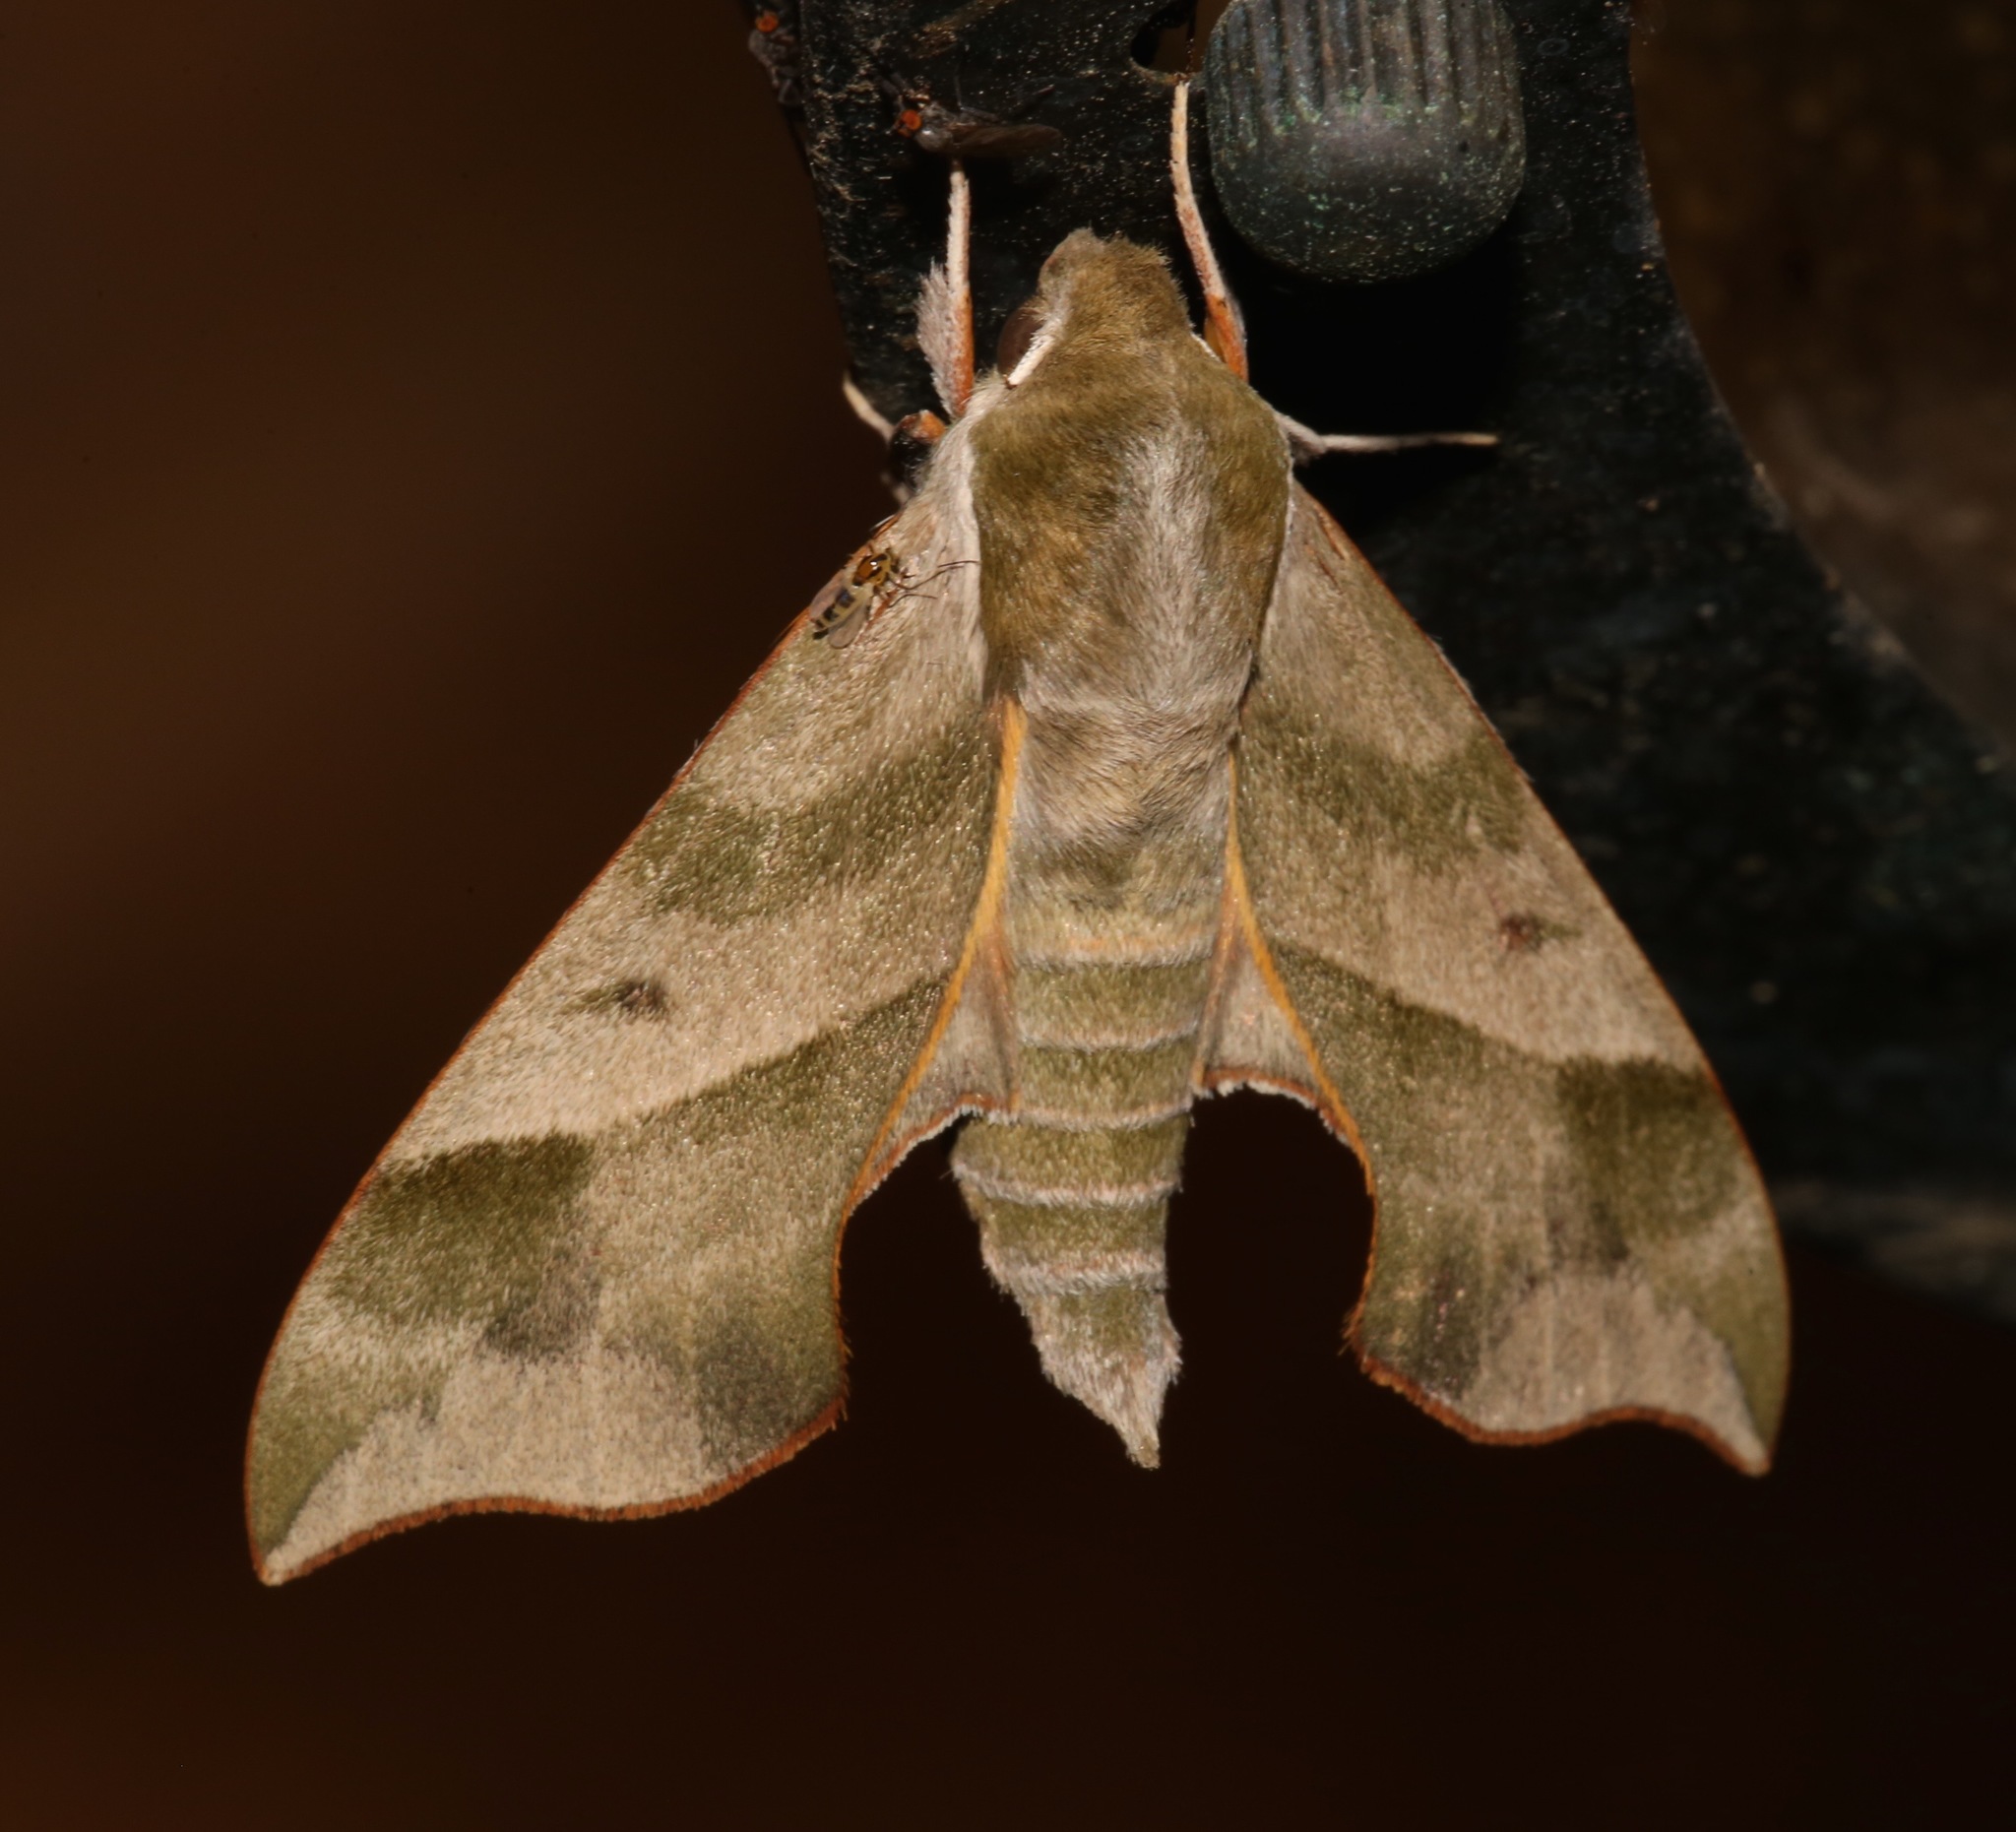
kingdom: Animalia
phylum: Arthropoda
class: Insecta
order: Lepidoptera
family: Sphingidae
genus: Darapsa
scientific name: Darapsa myron
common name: Hog sphinx
